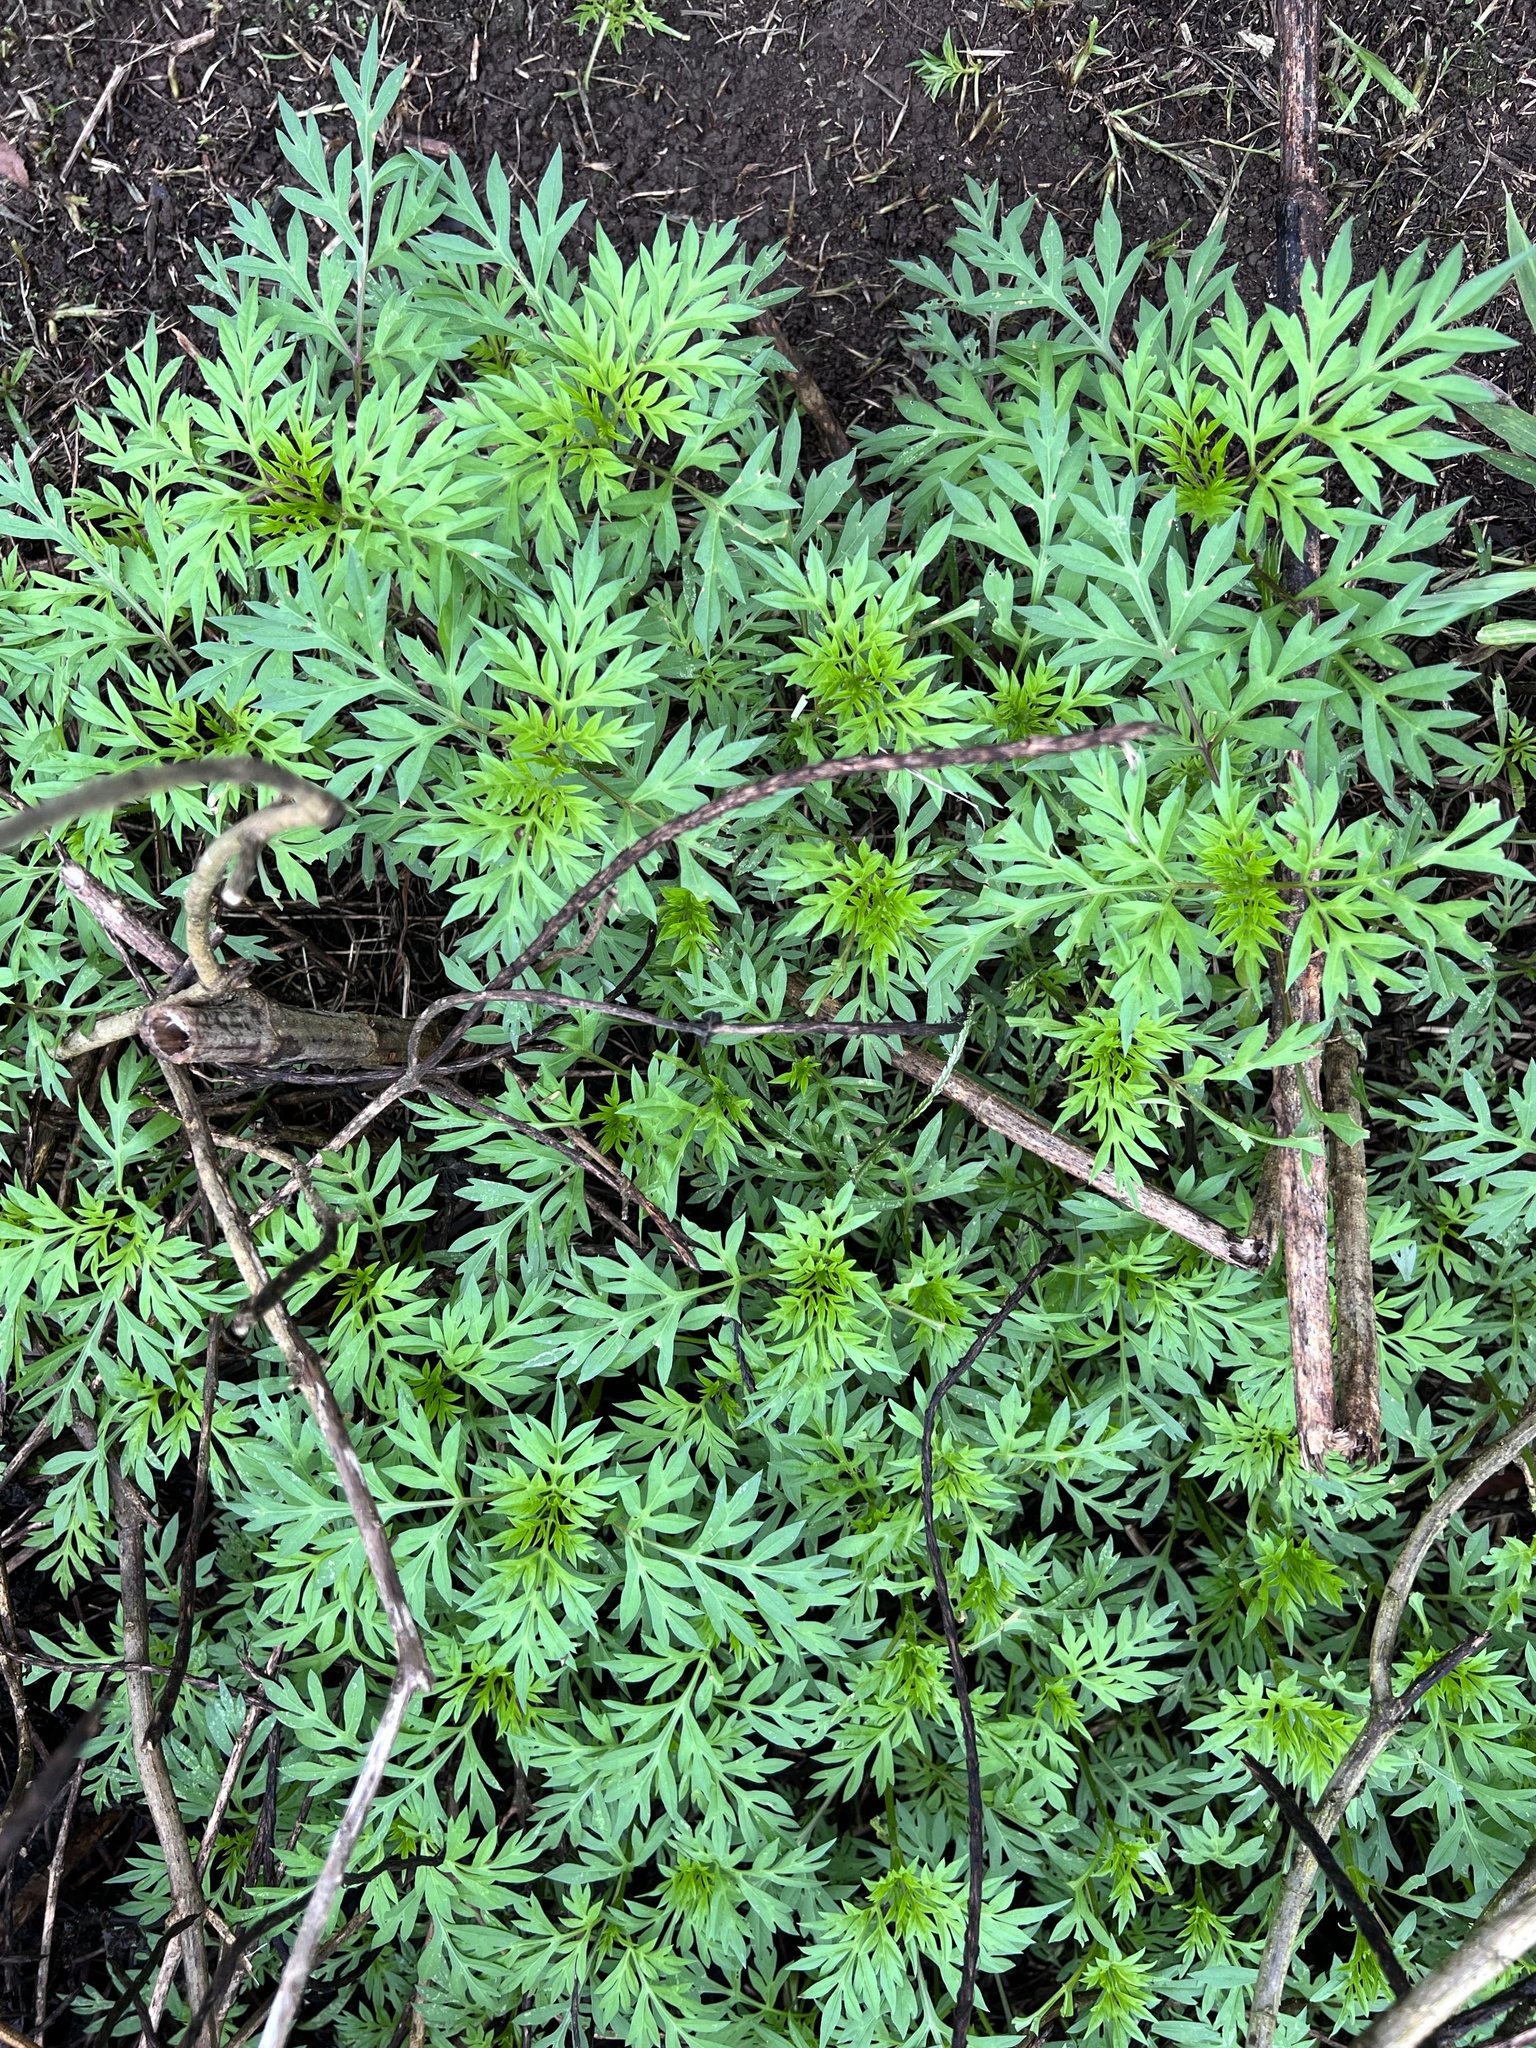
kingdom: Plantae
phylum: Tracheophyta
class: Magnoliopsida
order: Asterales
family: Asteraceae
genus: Cosmos
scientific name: Cosmos caudatus
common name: Wild cosmos
